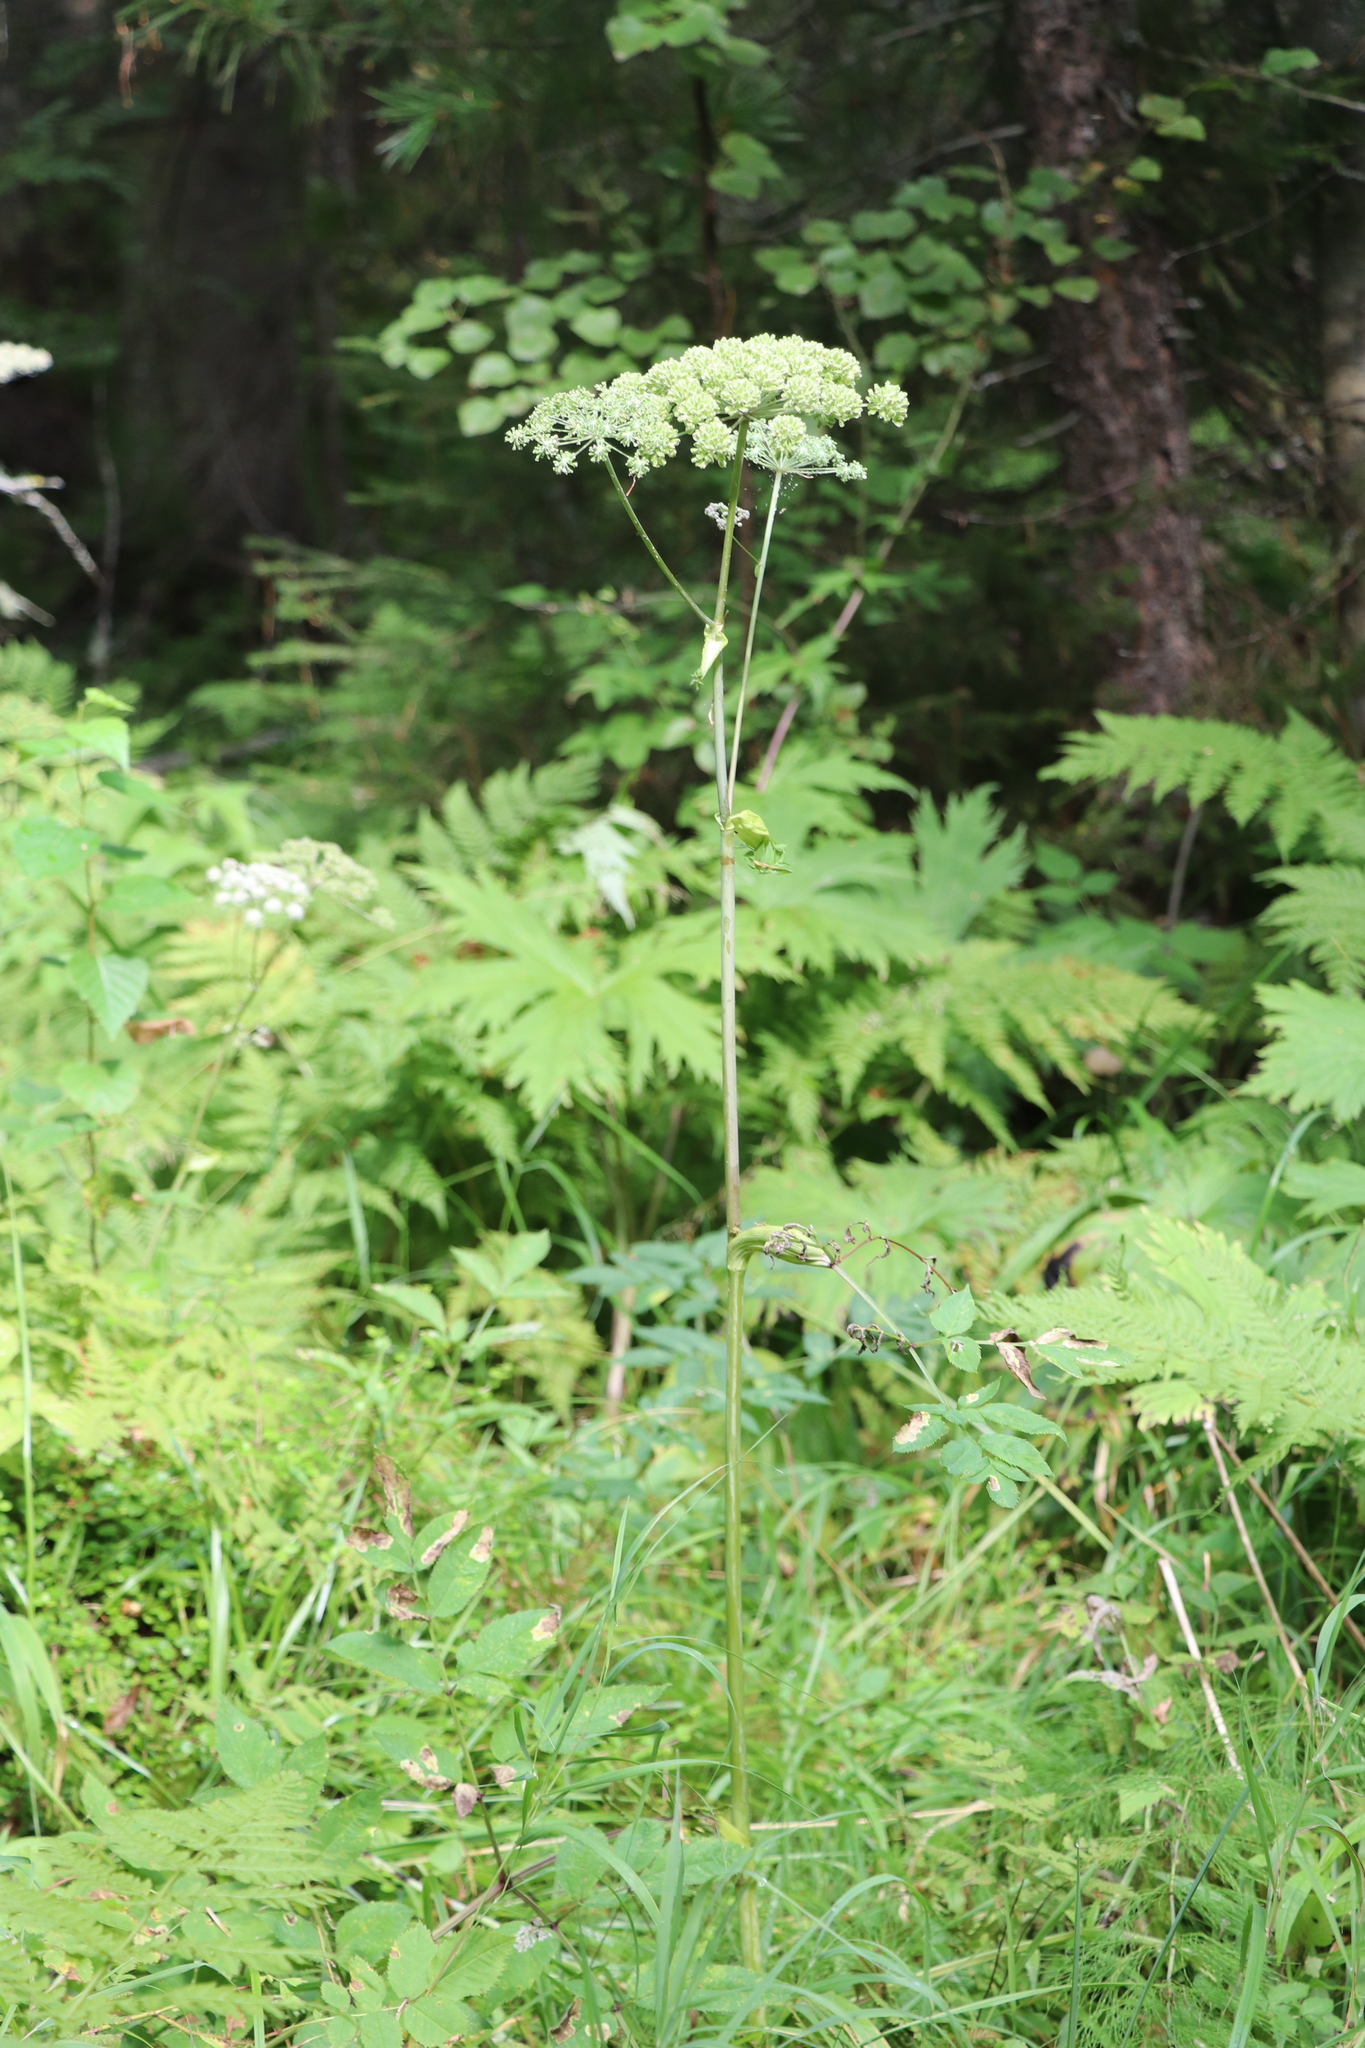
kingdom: Plantae
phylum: Tracheophyta
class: Magnoliopsida
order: Apiales
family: Apiaceae
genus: Angelica
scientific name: Angelica sylvestris
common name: Wild angelica
